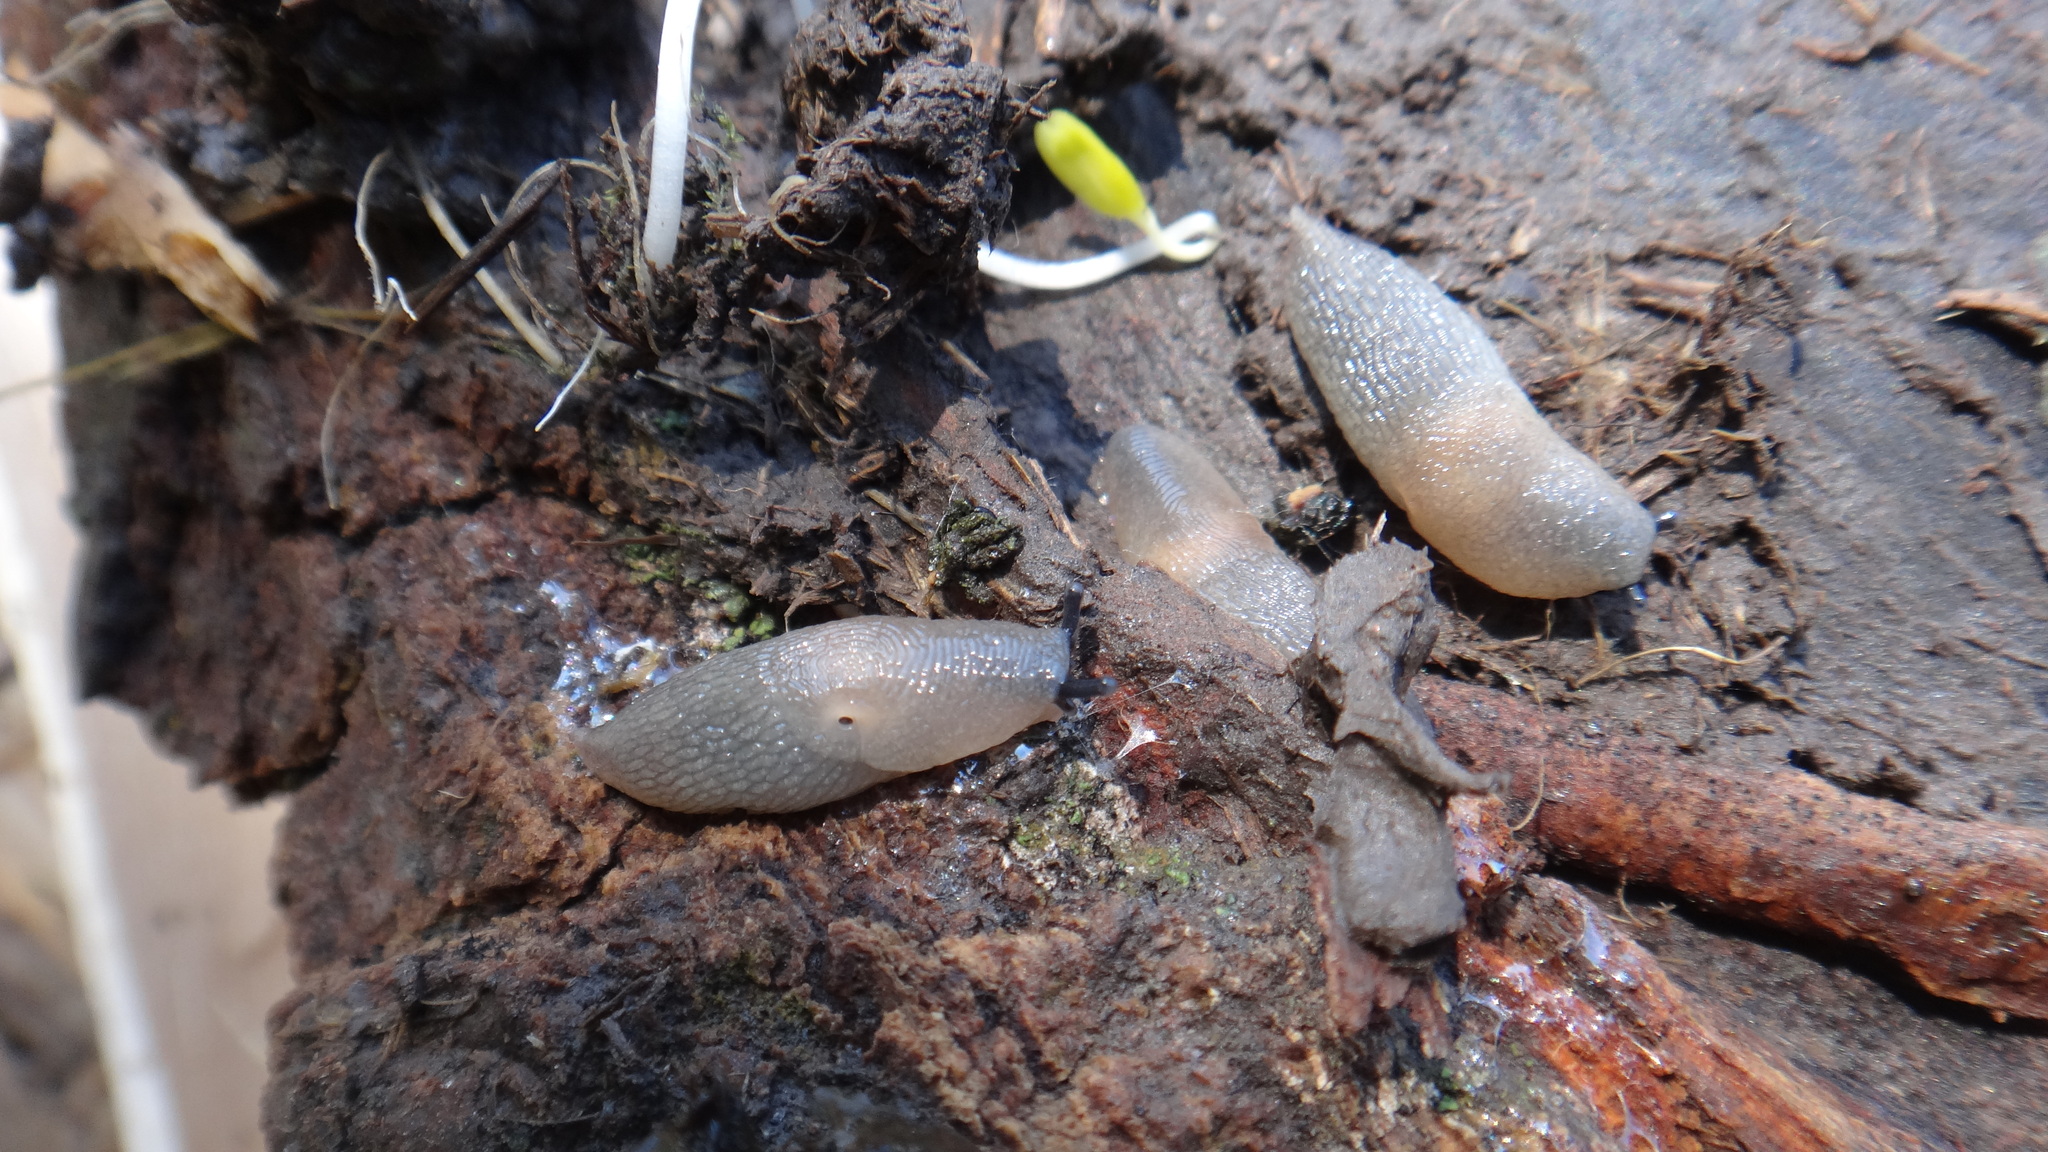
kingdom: Animalia
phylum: Mollusca
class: Gastropoda
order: Stylommatophora
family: Agriolimacidae
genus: Krynickillus
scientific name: Krynickillus melanocephalus
